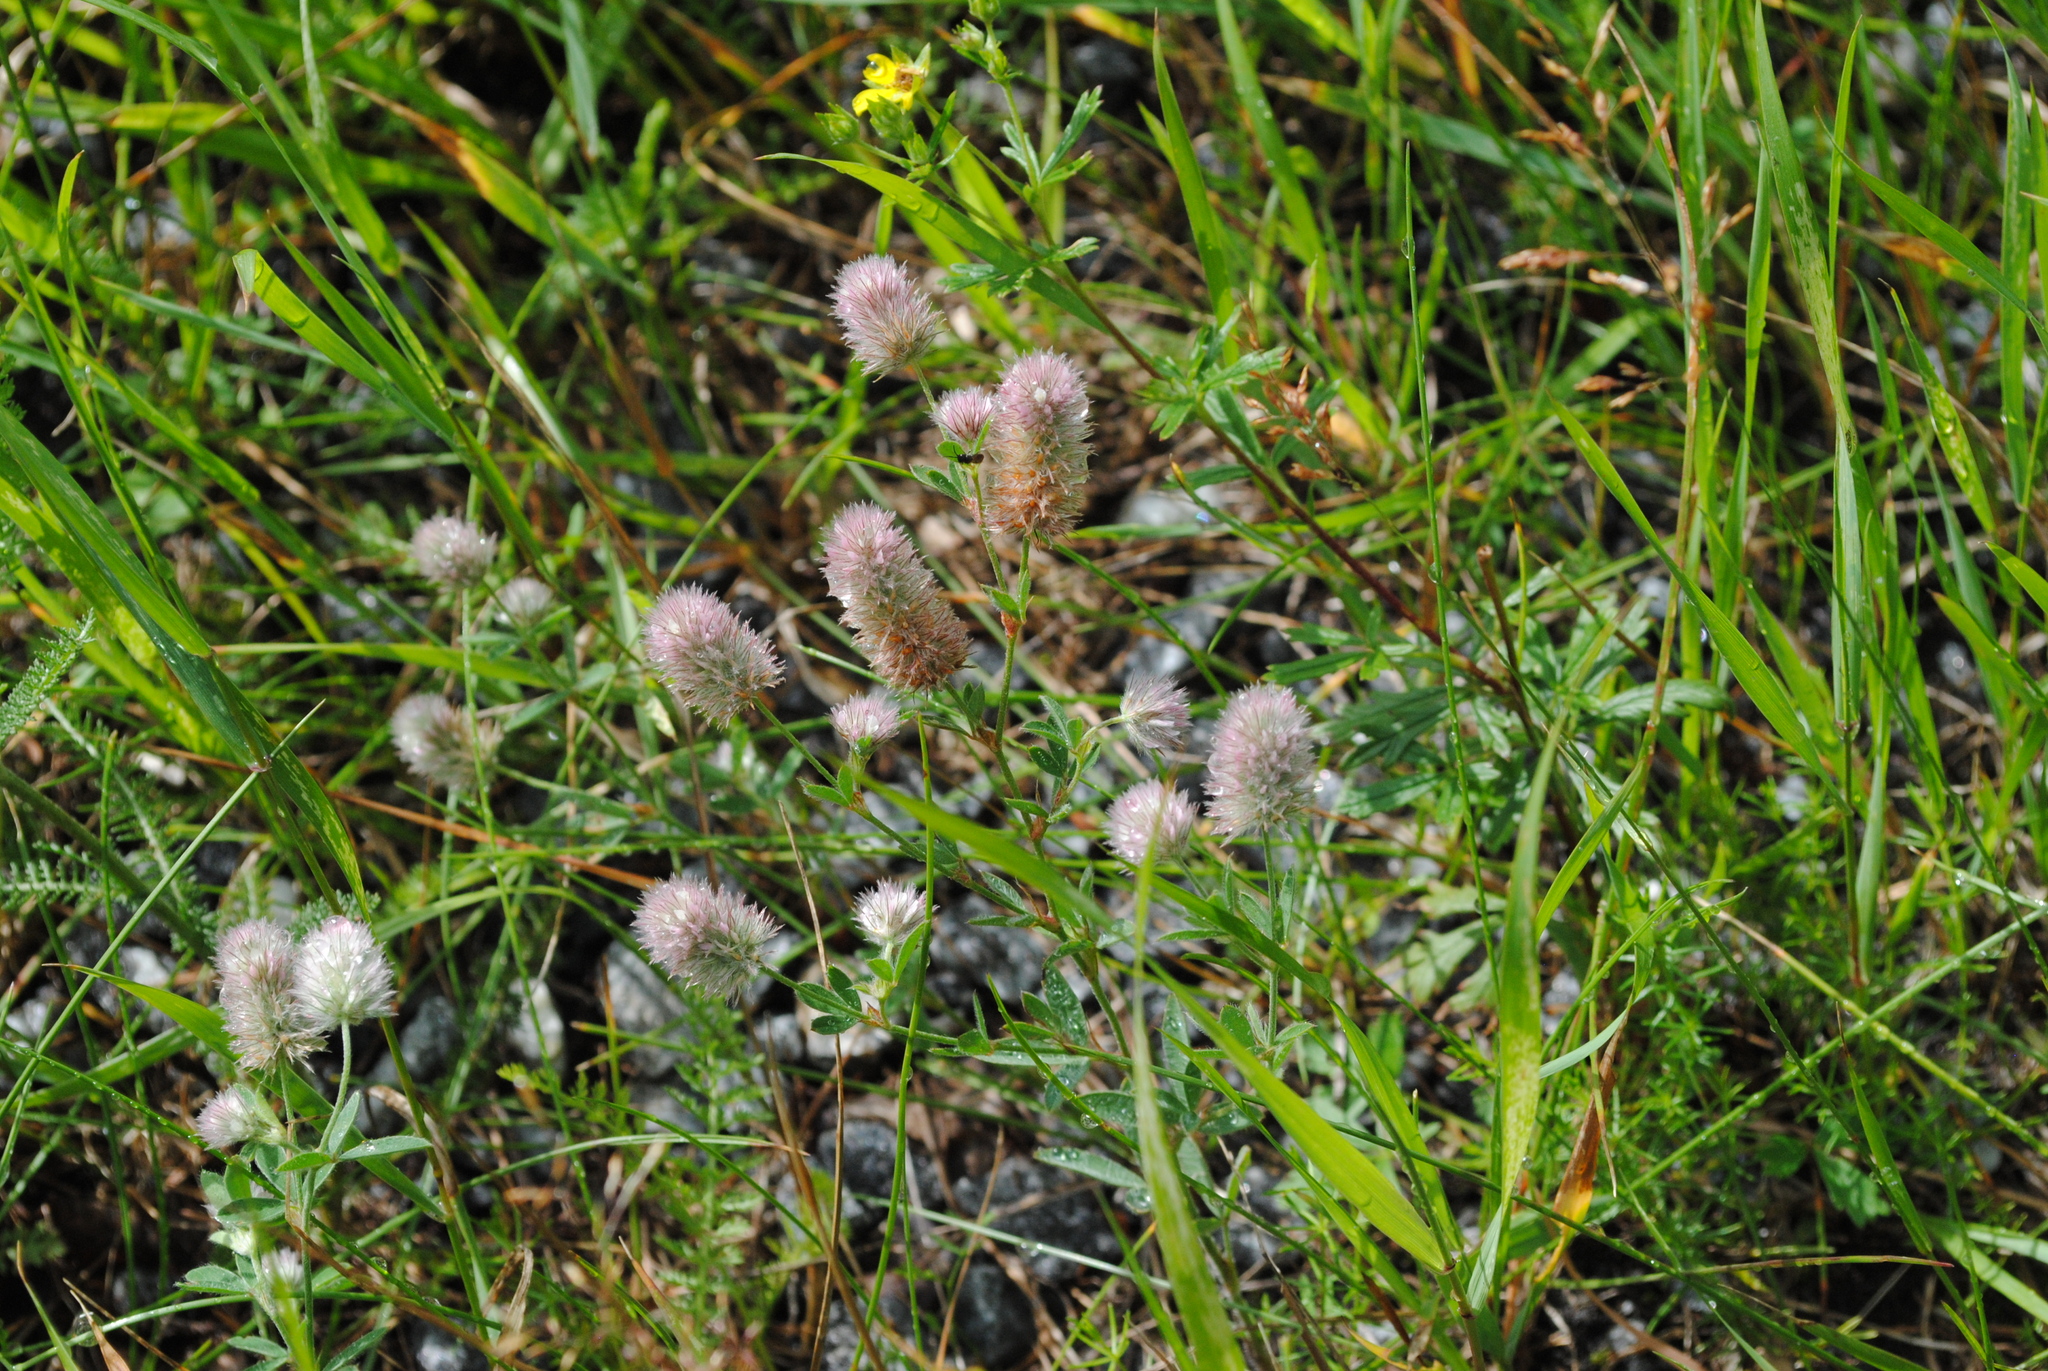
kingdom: Plantae
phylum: Tracheophyta
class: Magnoliopsida
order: Fabales
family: Fabaceae
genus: Trifolium
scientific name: Trifolium arvense
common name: Hare's-foot clover
